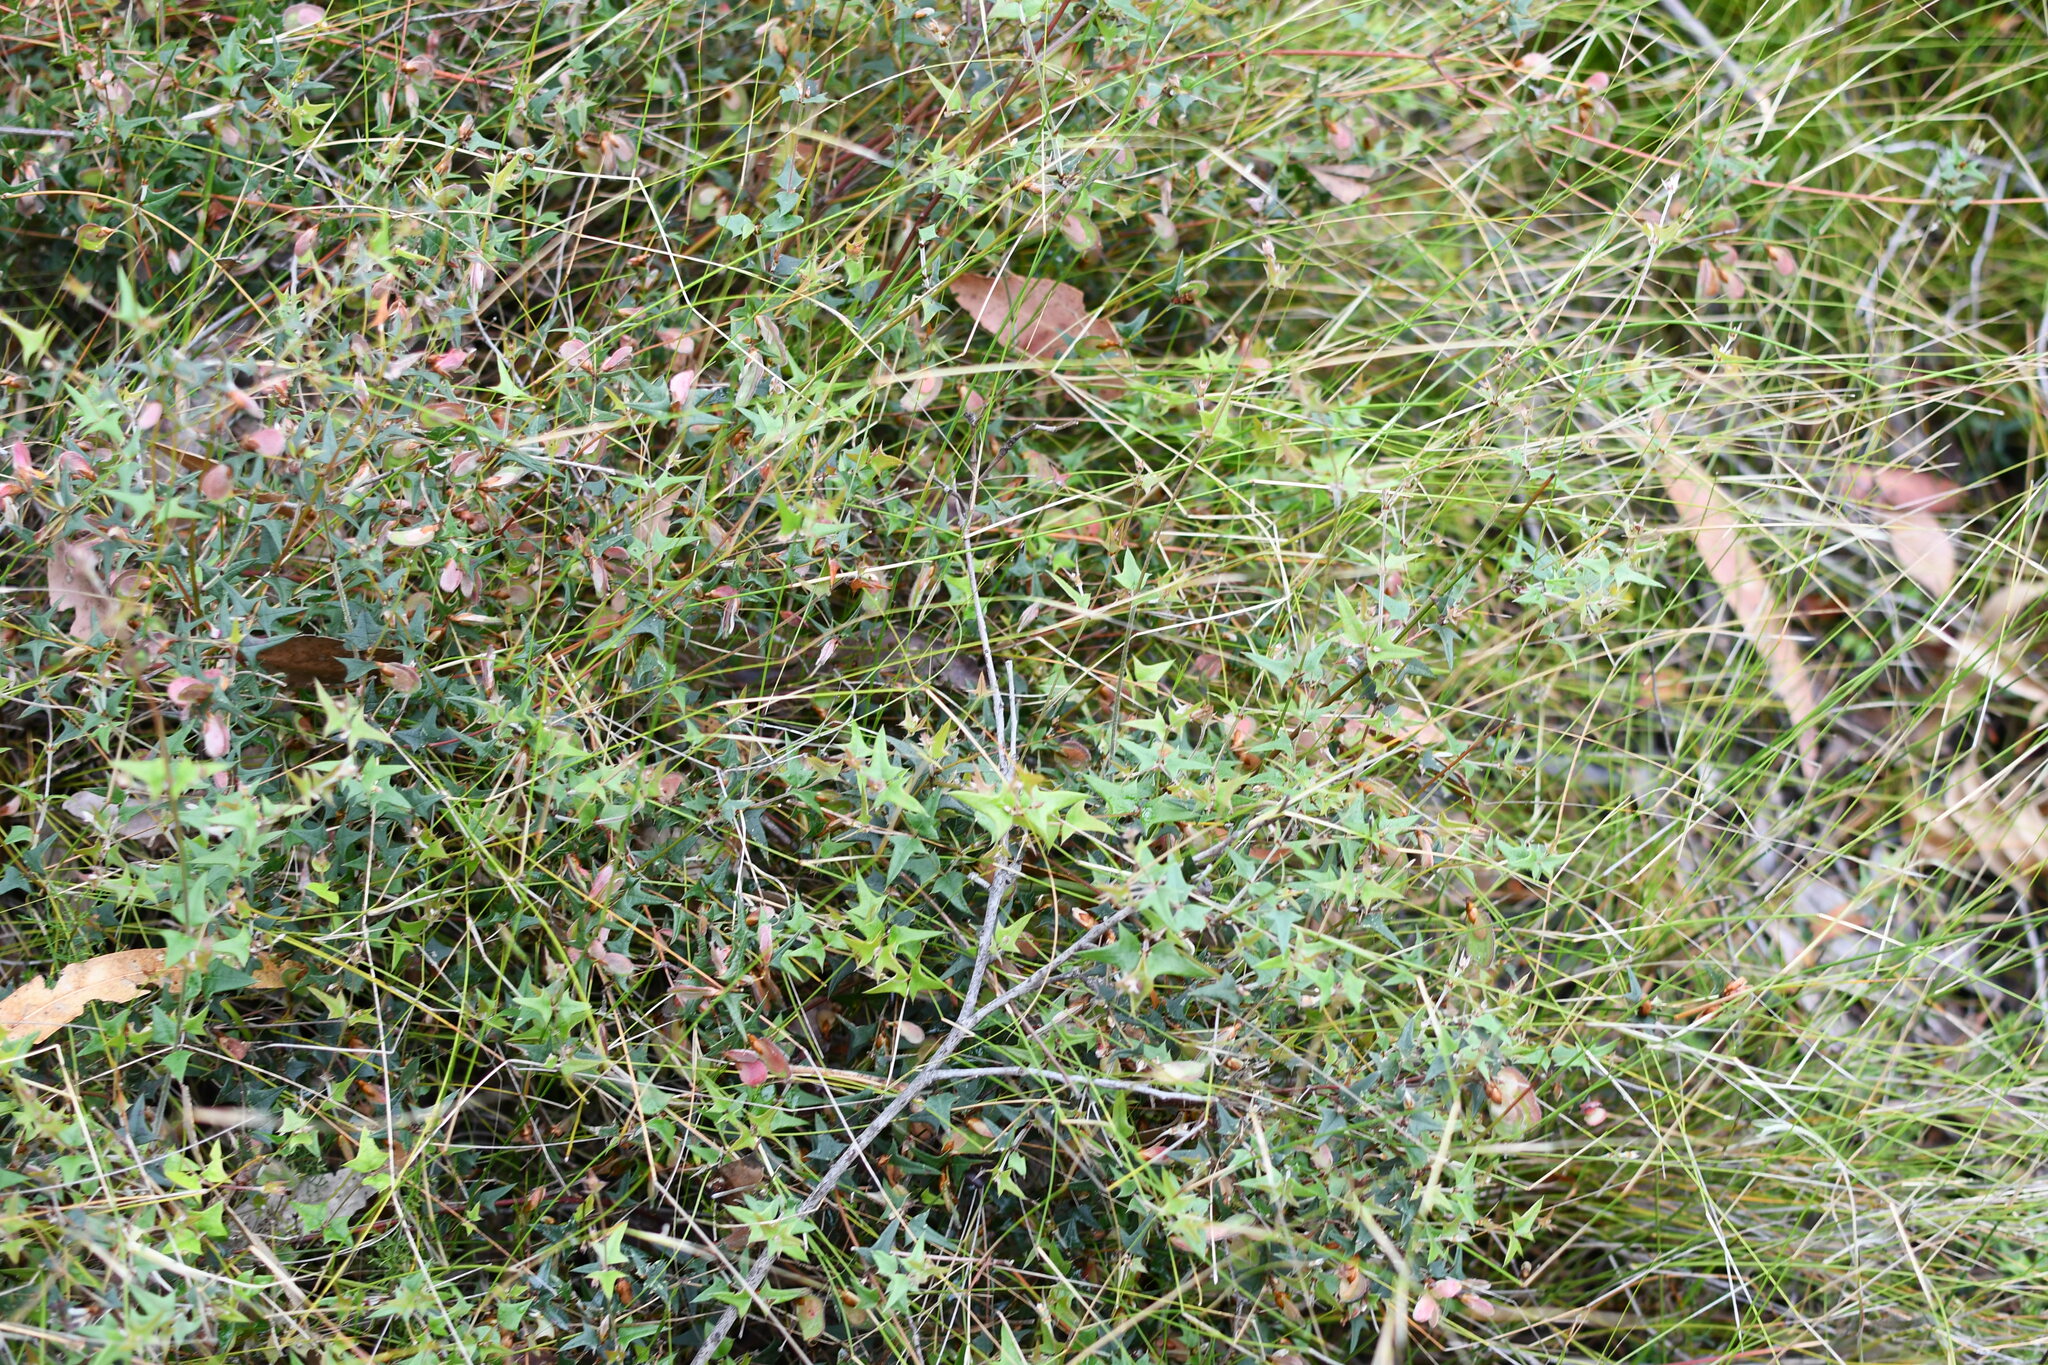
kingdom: Plantae
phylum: Tracheophyta
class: Magnoliopsida
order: Fabales
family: Fabaceae
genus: Platylobium
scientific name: Platylobium obtusangulum
